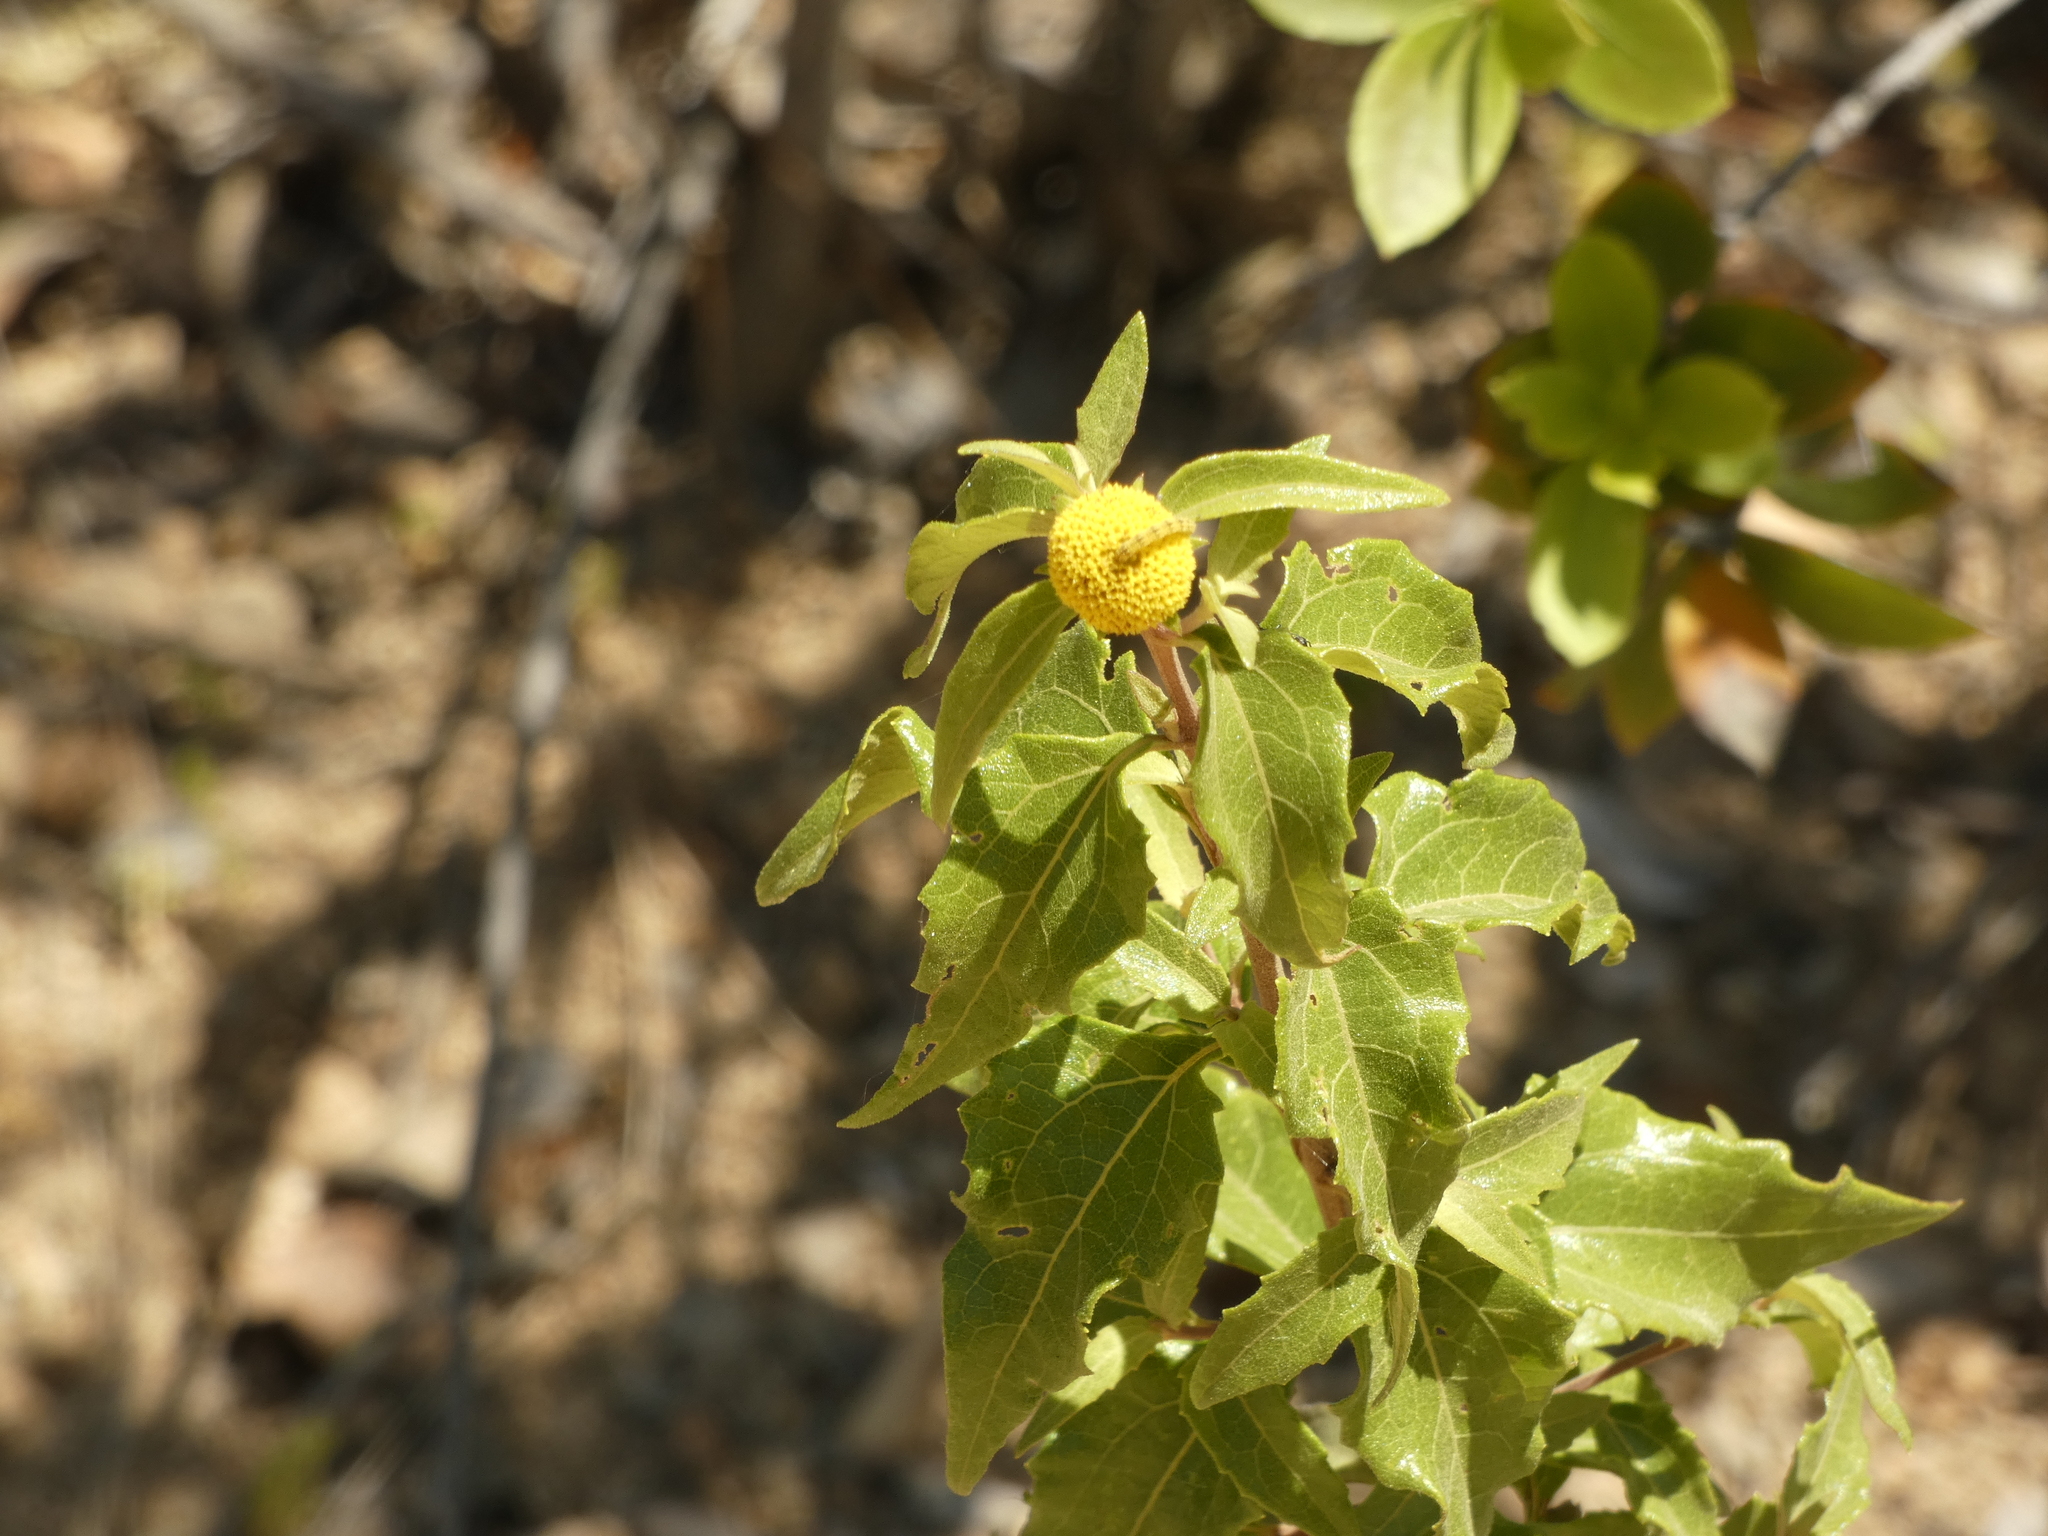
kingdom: Plantae
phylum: Tracheophyta
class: Magnoliopsida
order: Asterales
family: Asteraceae
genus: Podanthus
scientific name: Podanthus mitiqui
